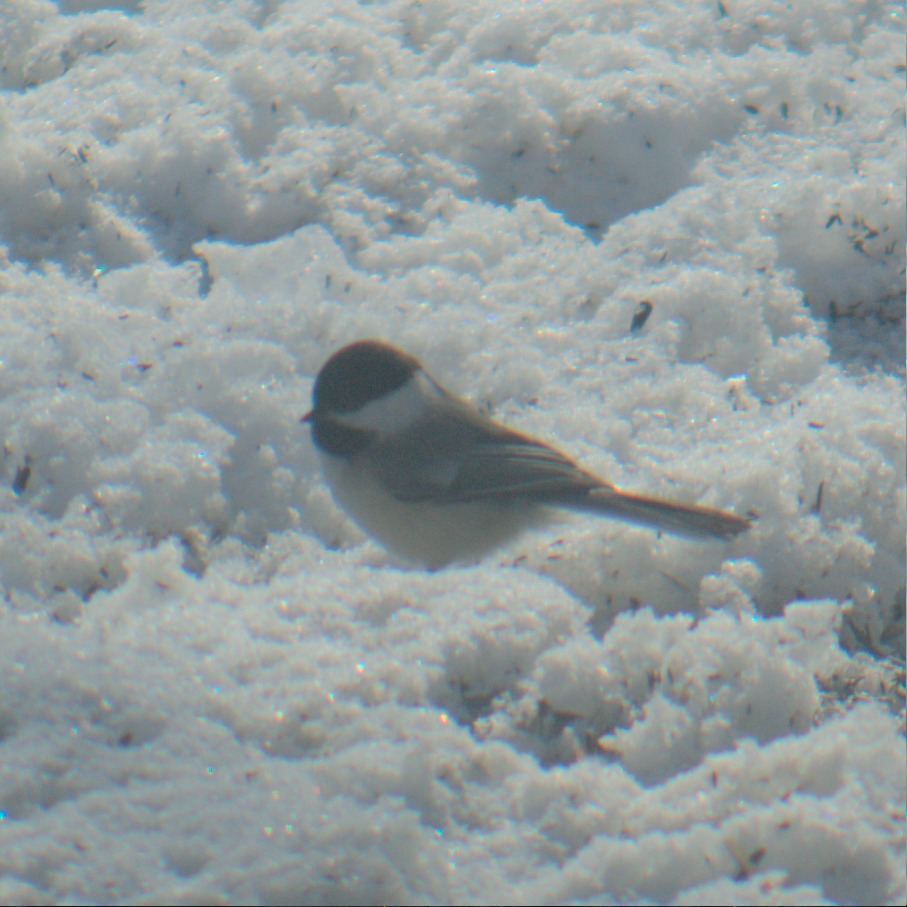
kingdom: Animalia
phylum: Chordata
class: Aves
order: Passeriformes
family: Paridae
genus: Poecile
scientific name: Poecile atricapillus
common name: Black-capped chickadee
